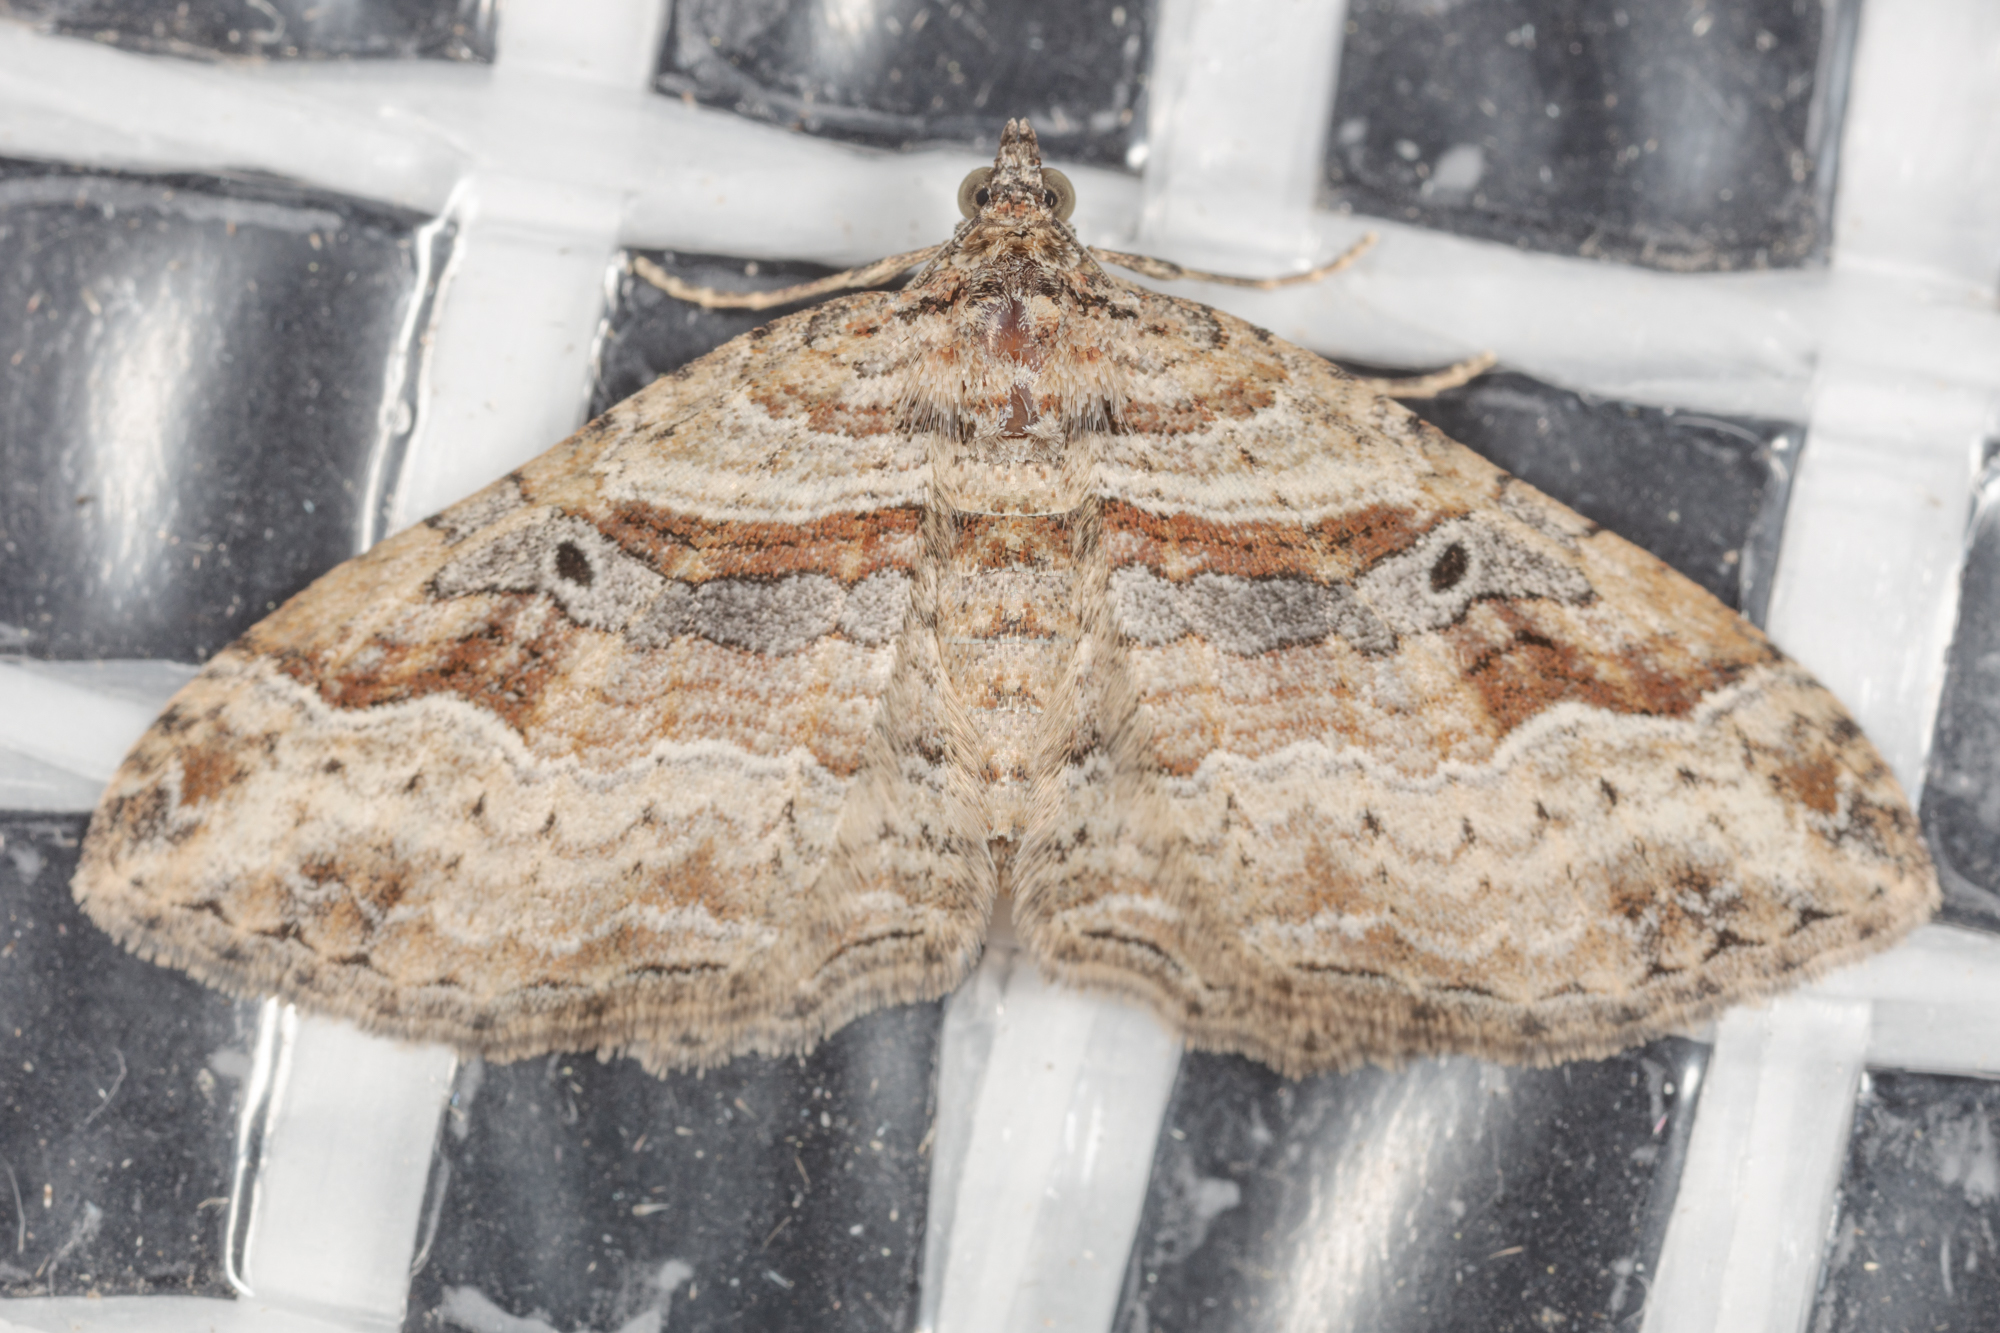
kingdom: Animalia
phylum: Arthropoda
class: Insecta
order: Lepidoptera
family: Geometridae
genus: Costaconvexa
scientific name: Costaconvexa centrostrigaria
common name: Bent-line carpet
